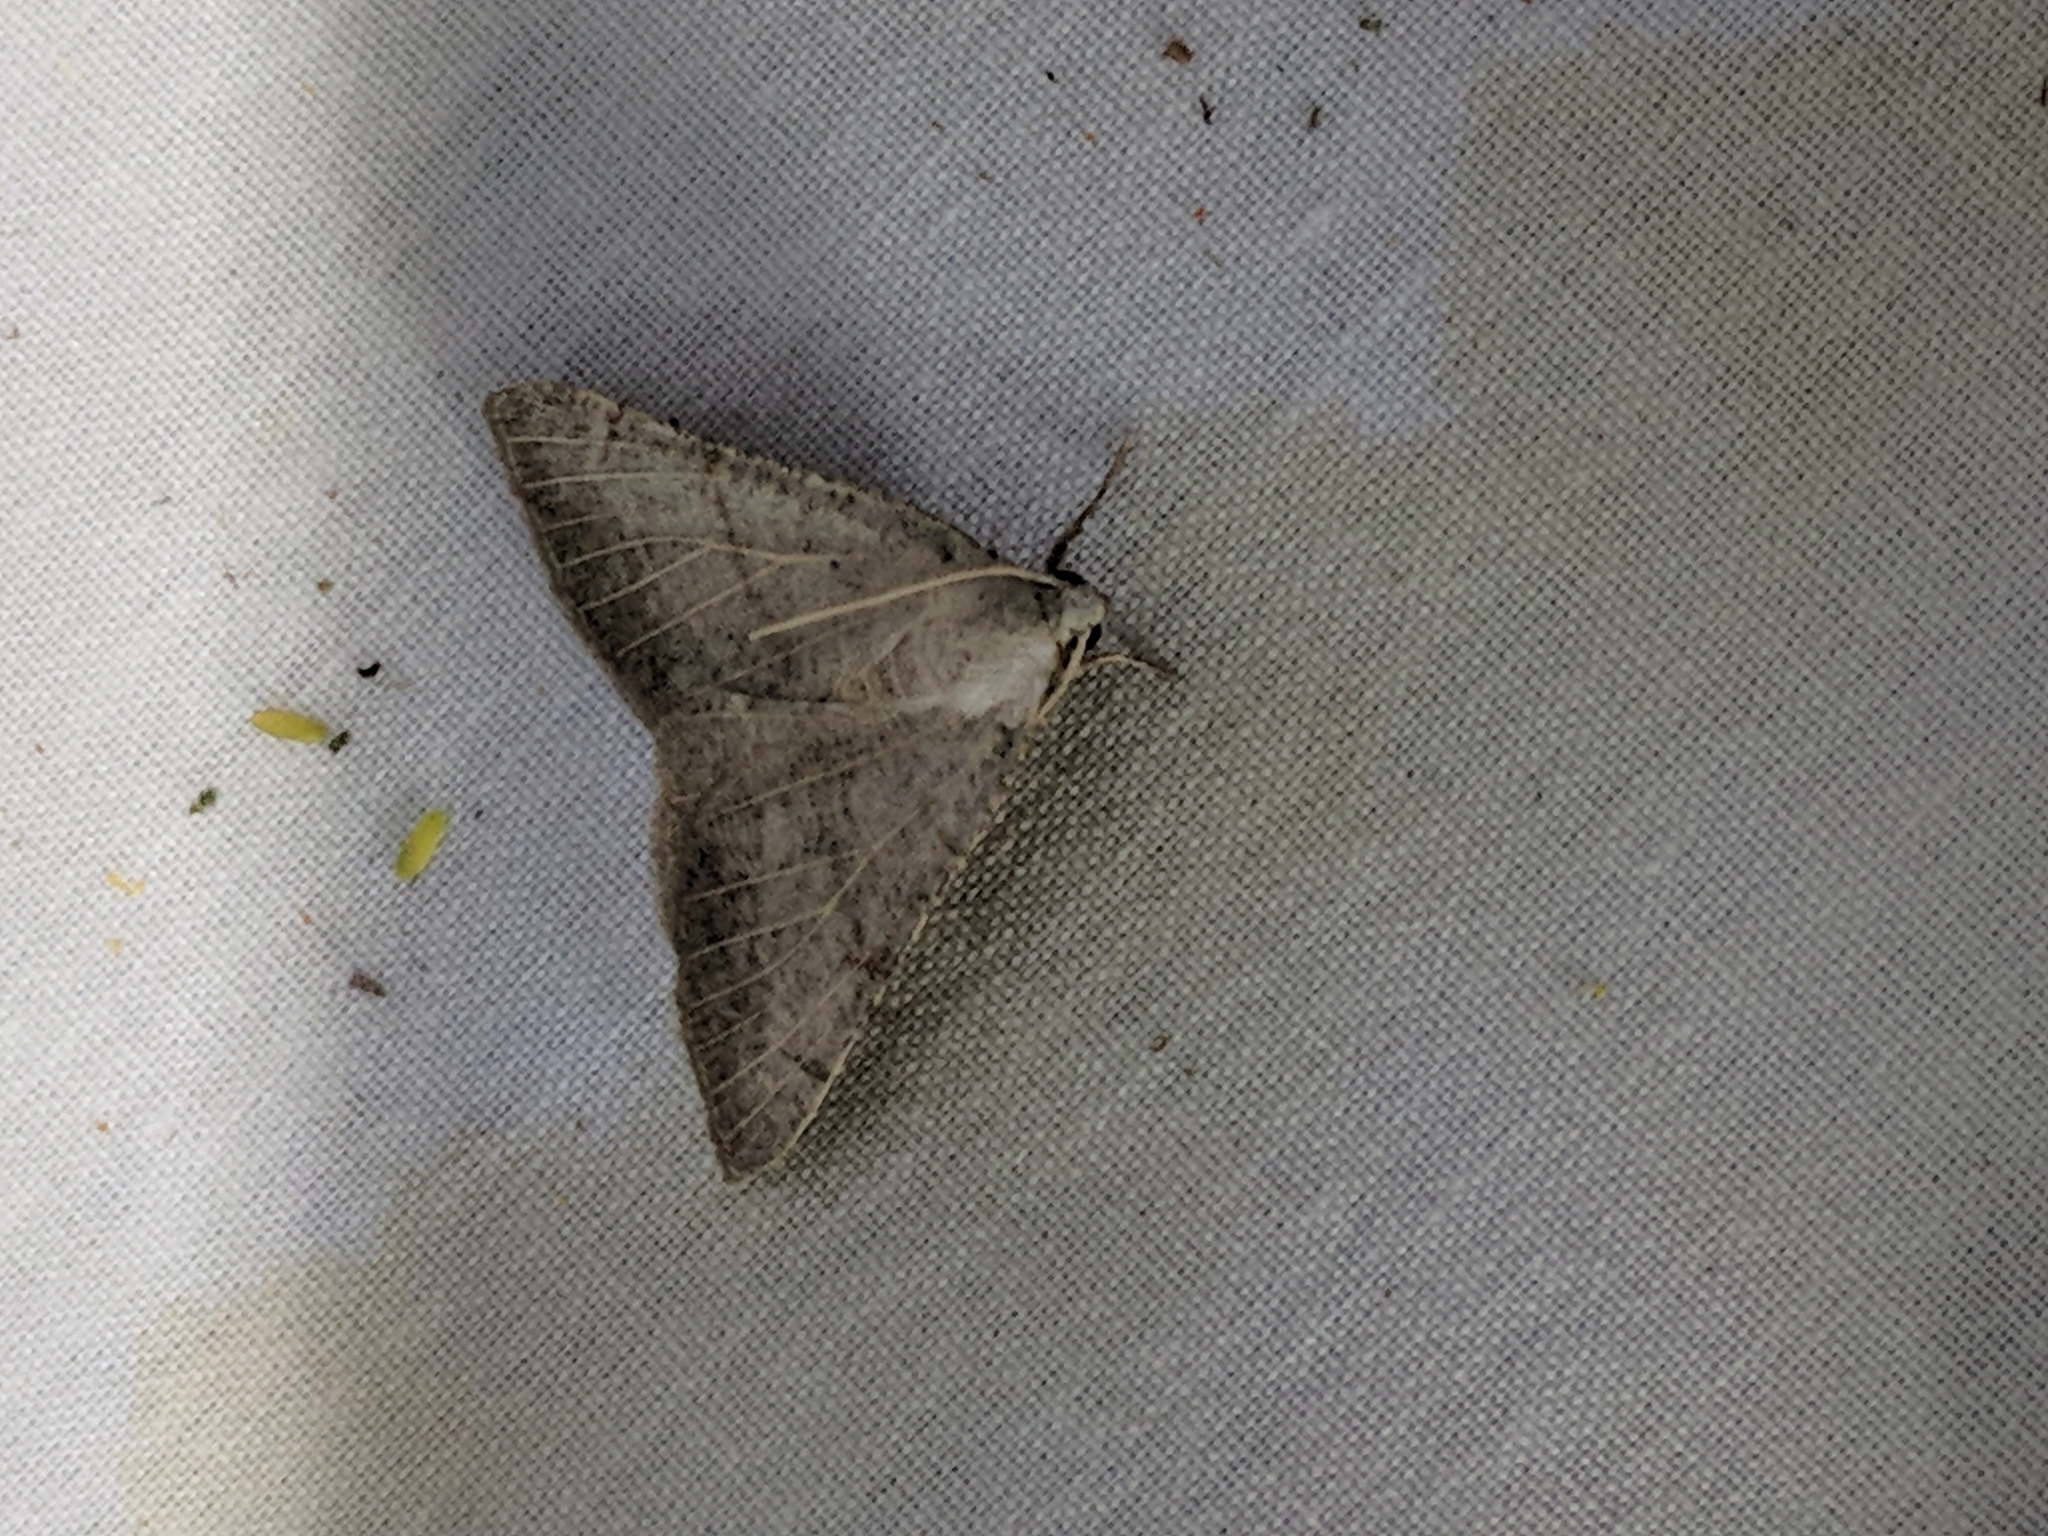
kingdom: Animalia
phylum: Arthropoda
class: Insecta
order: Lepidoptera
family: Geometridae
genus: Isturgia
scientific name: Isturgia dislocaria
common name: Pale-viened enconista
